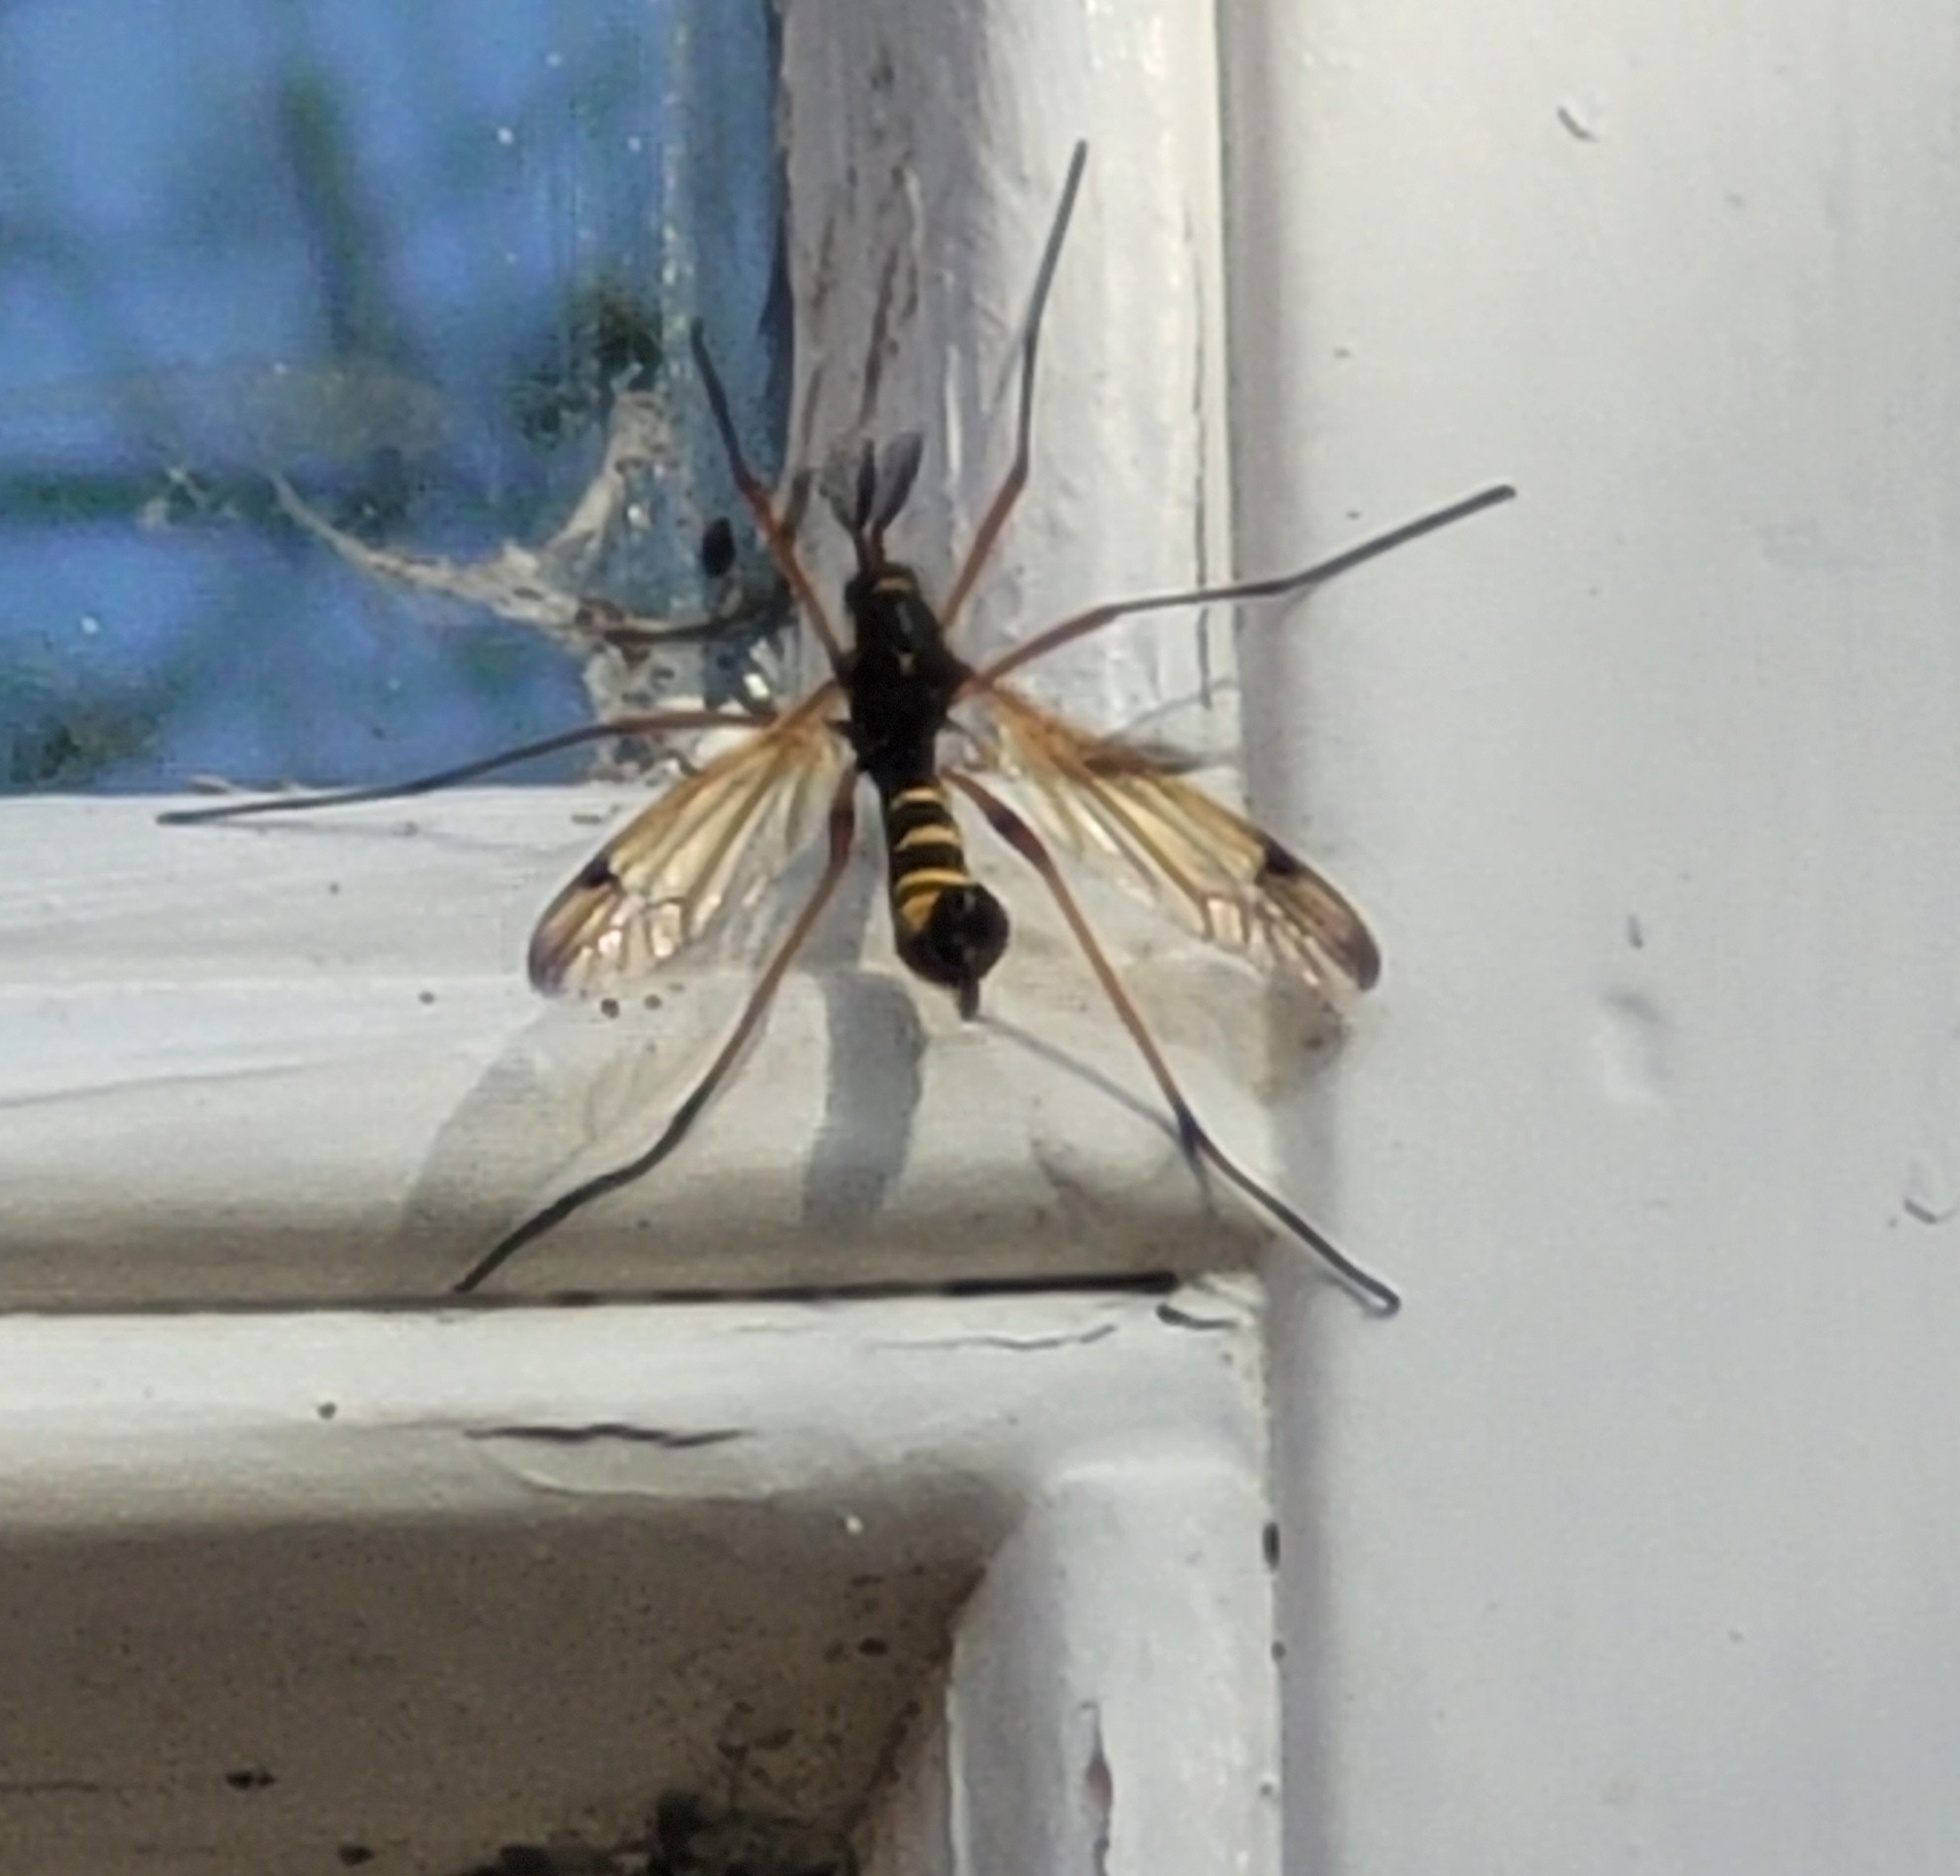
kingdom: Animalia
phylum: Arthropoda
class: Insecta
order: Diptera
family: Tipulidae
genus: Ctenophora
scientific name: Ctenophora flaveolata
